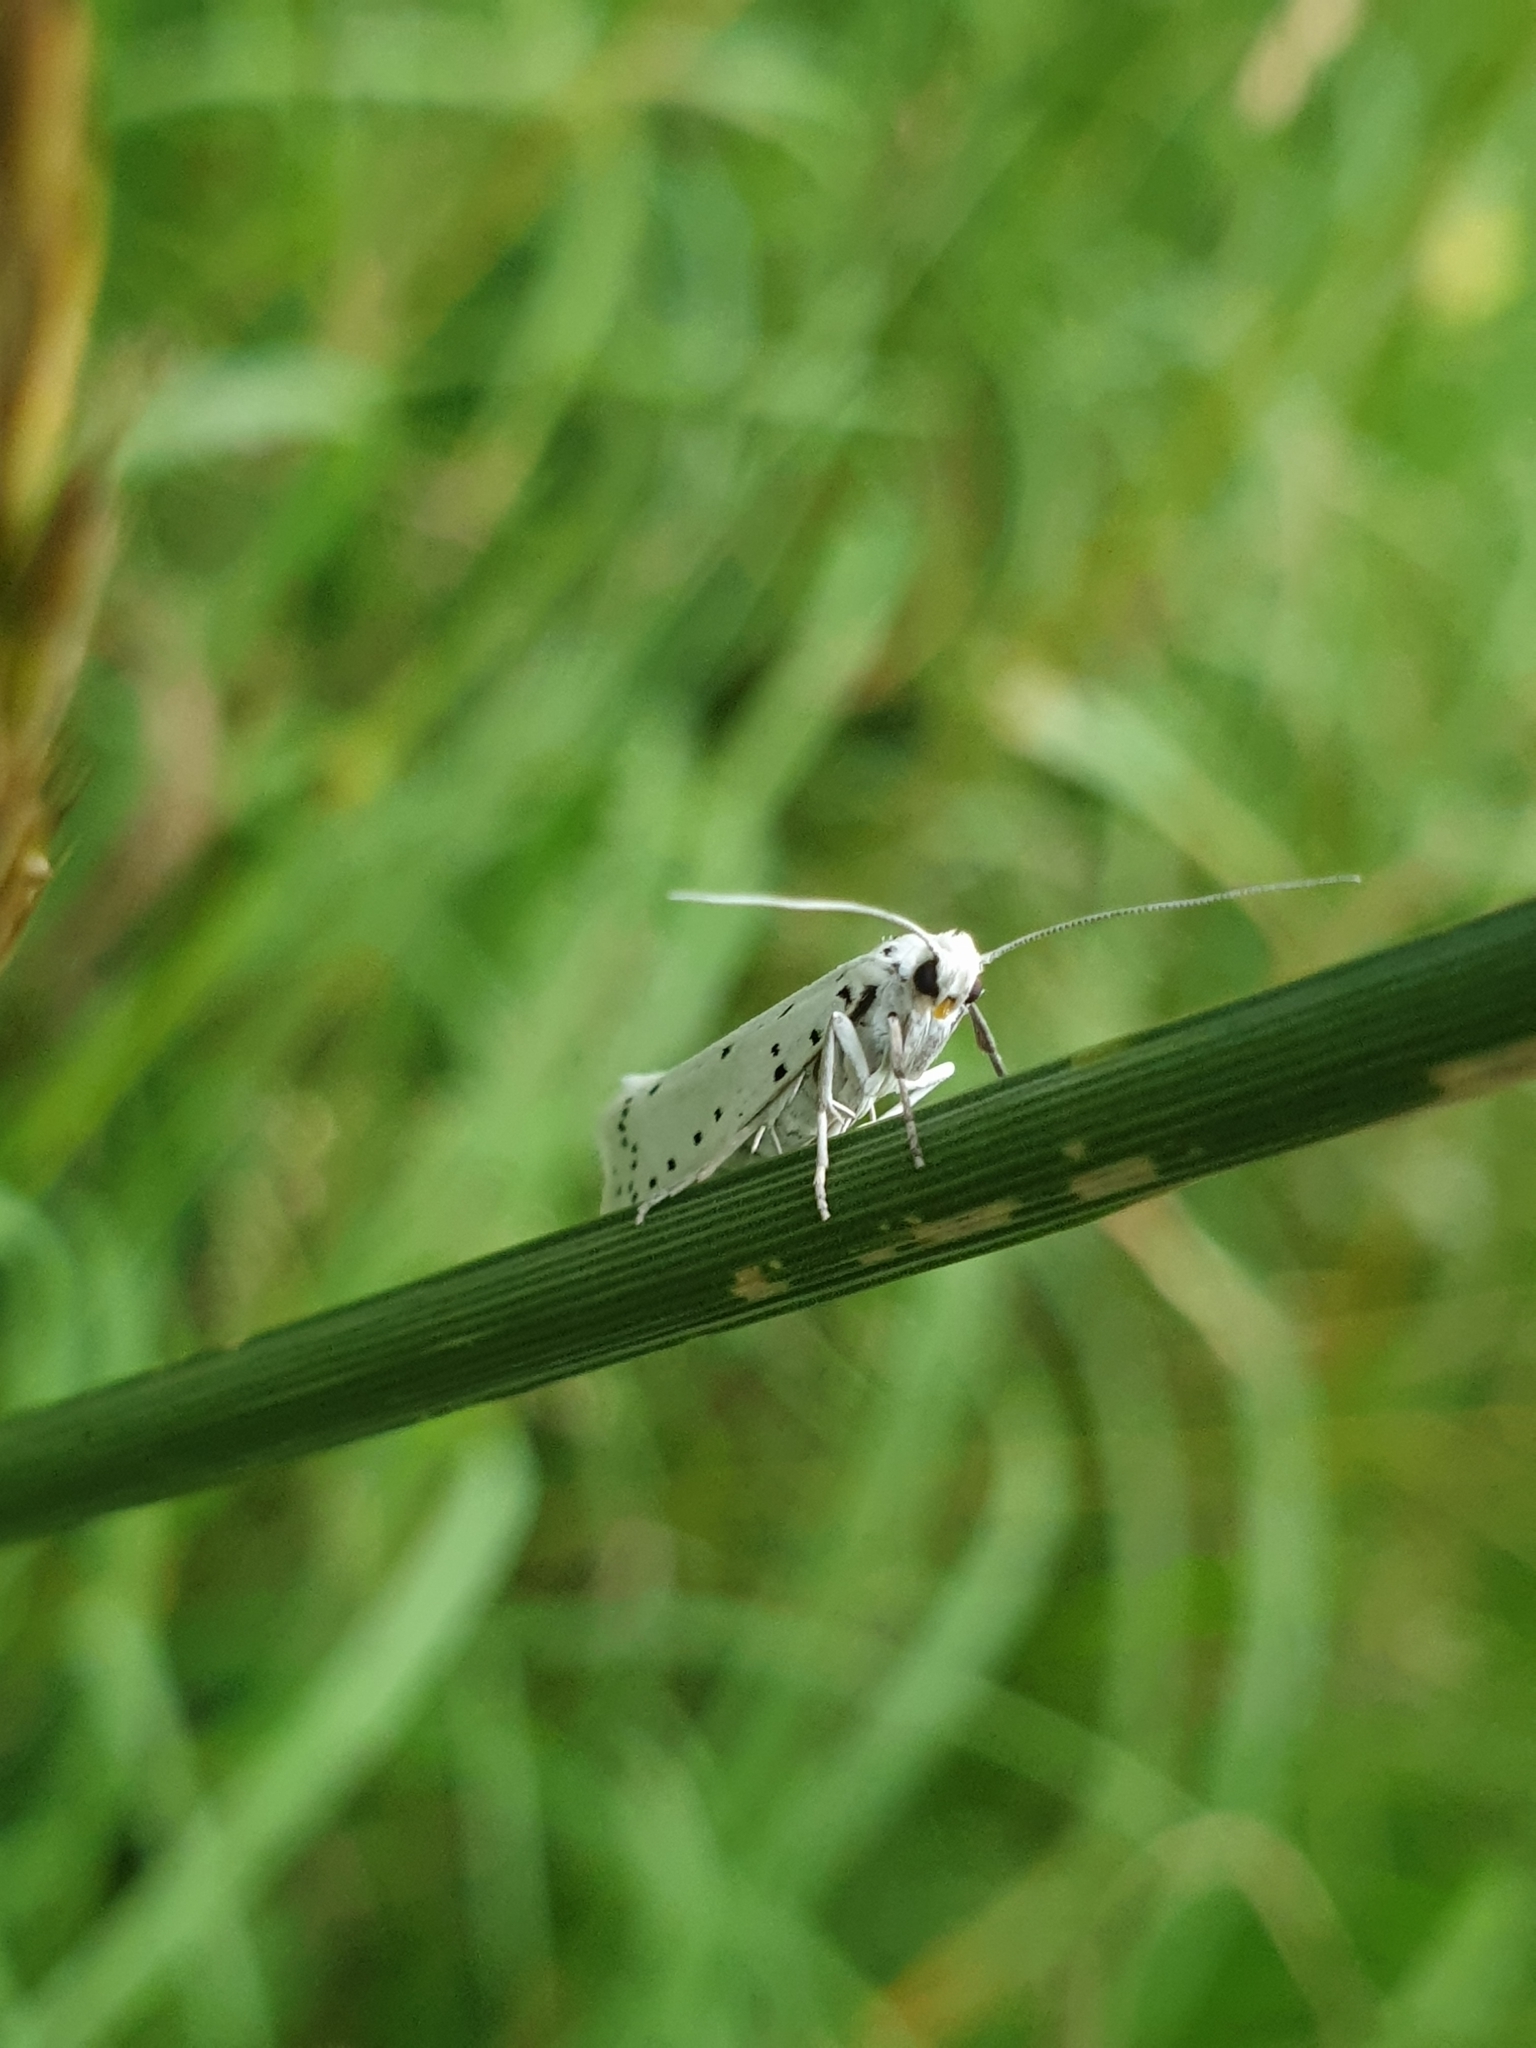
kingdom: Animalia
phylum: Arthropoda
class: Insecta
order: Lepidoptera
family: Yponomeutidae
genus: Yponomeuta
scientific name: Yponomeuta cagnagellus
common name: Spindle ermine
